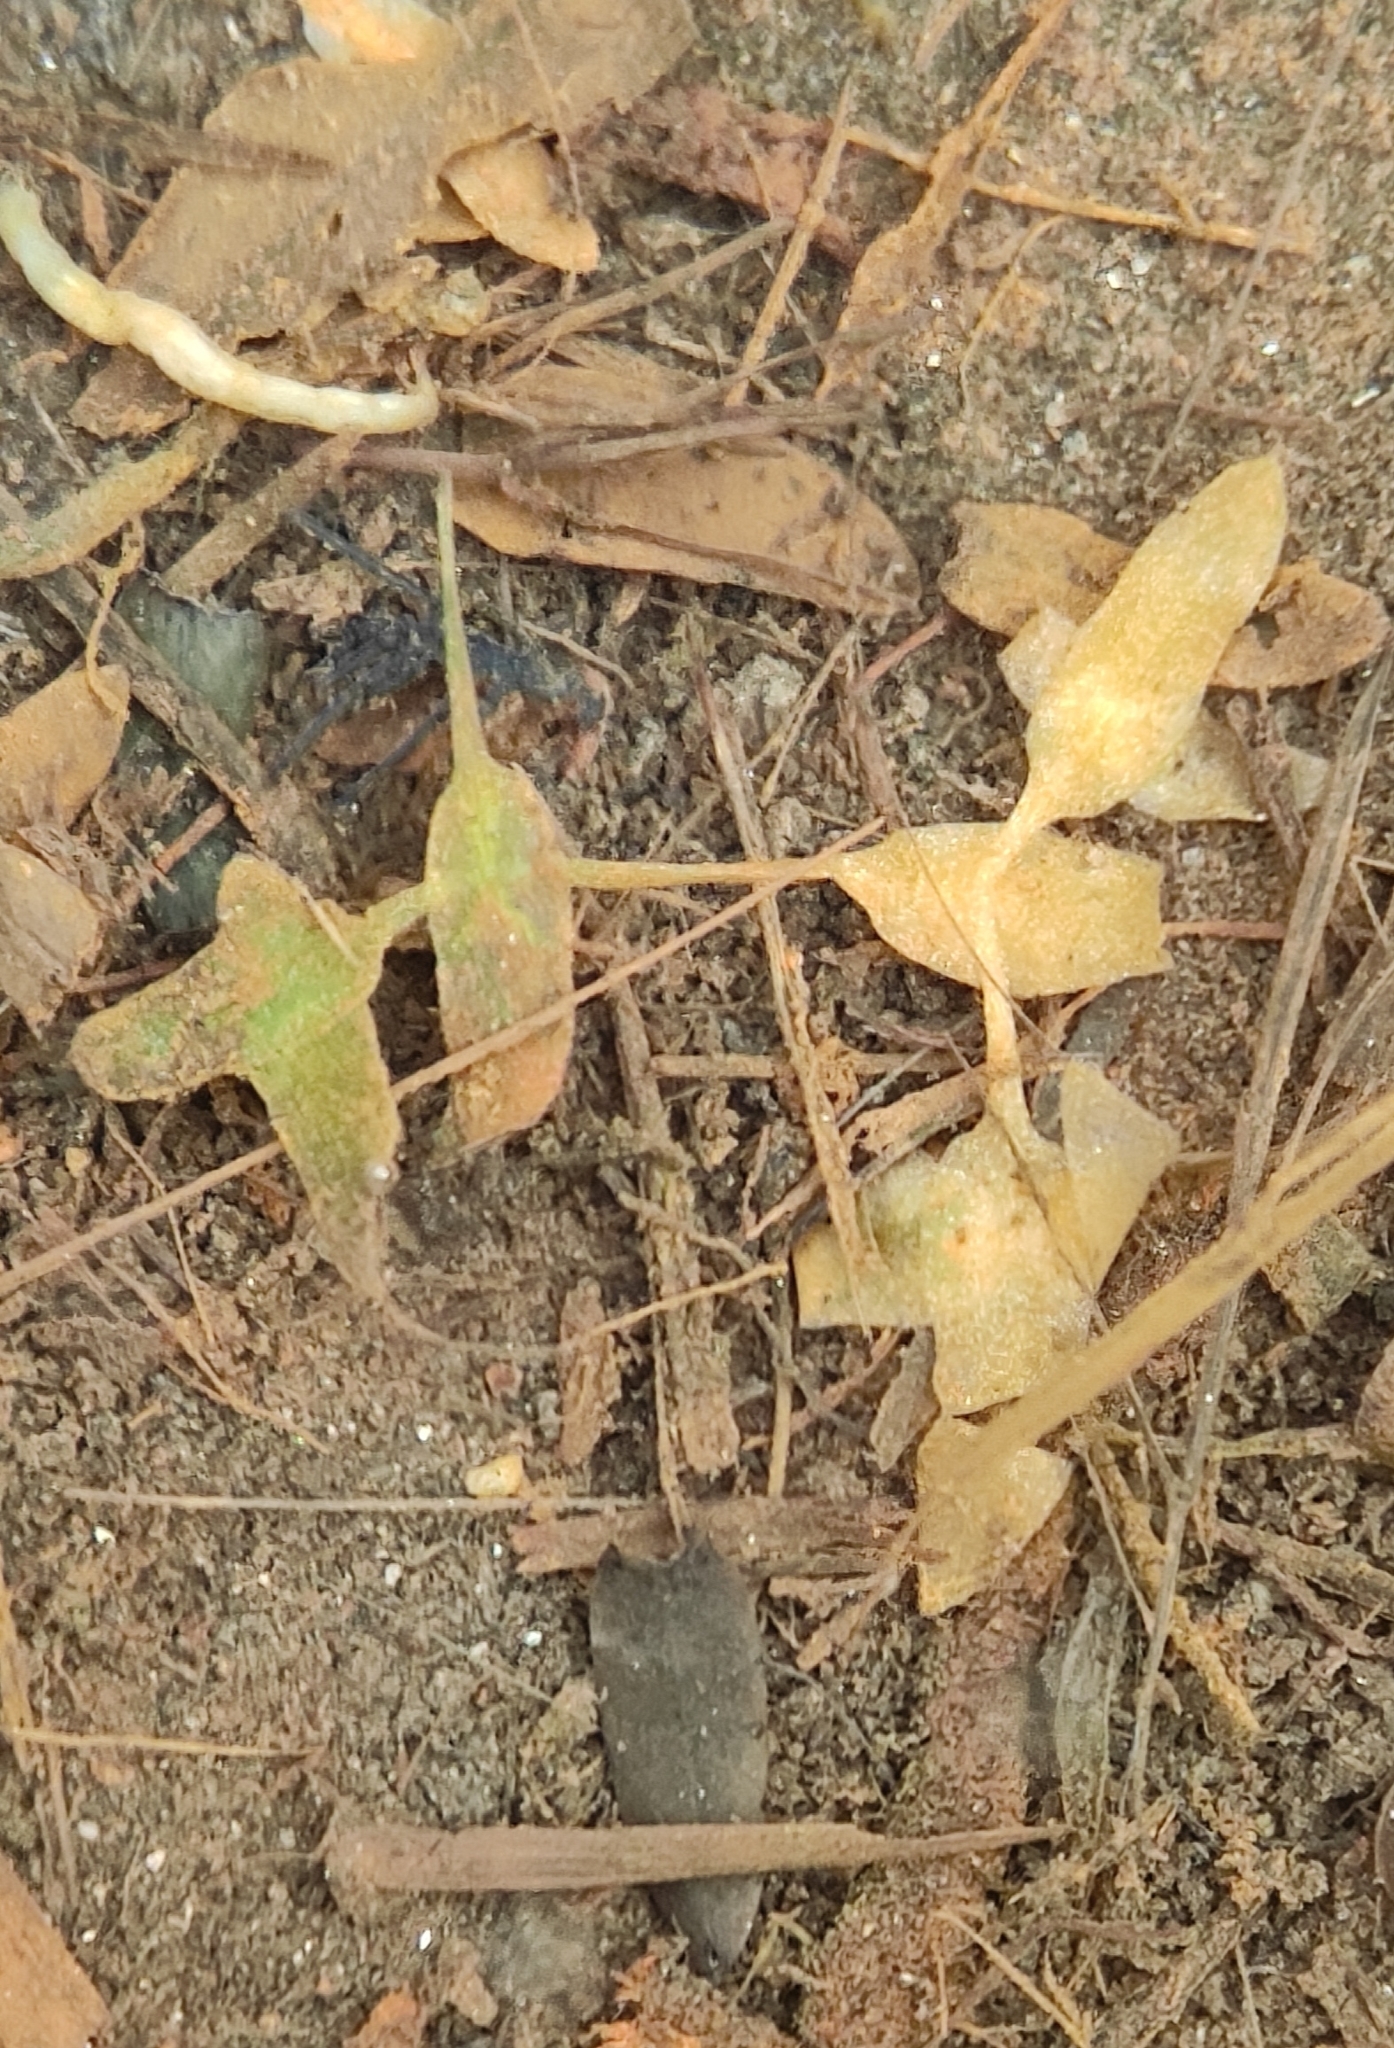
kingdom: Plantae
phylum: Tracheophyta
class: Liliopsida
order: Alismatales
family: Araceae
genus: Lemna
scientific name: Lemna trisulca
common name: Ivy-leaved duckweed
